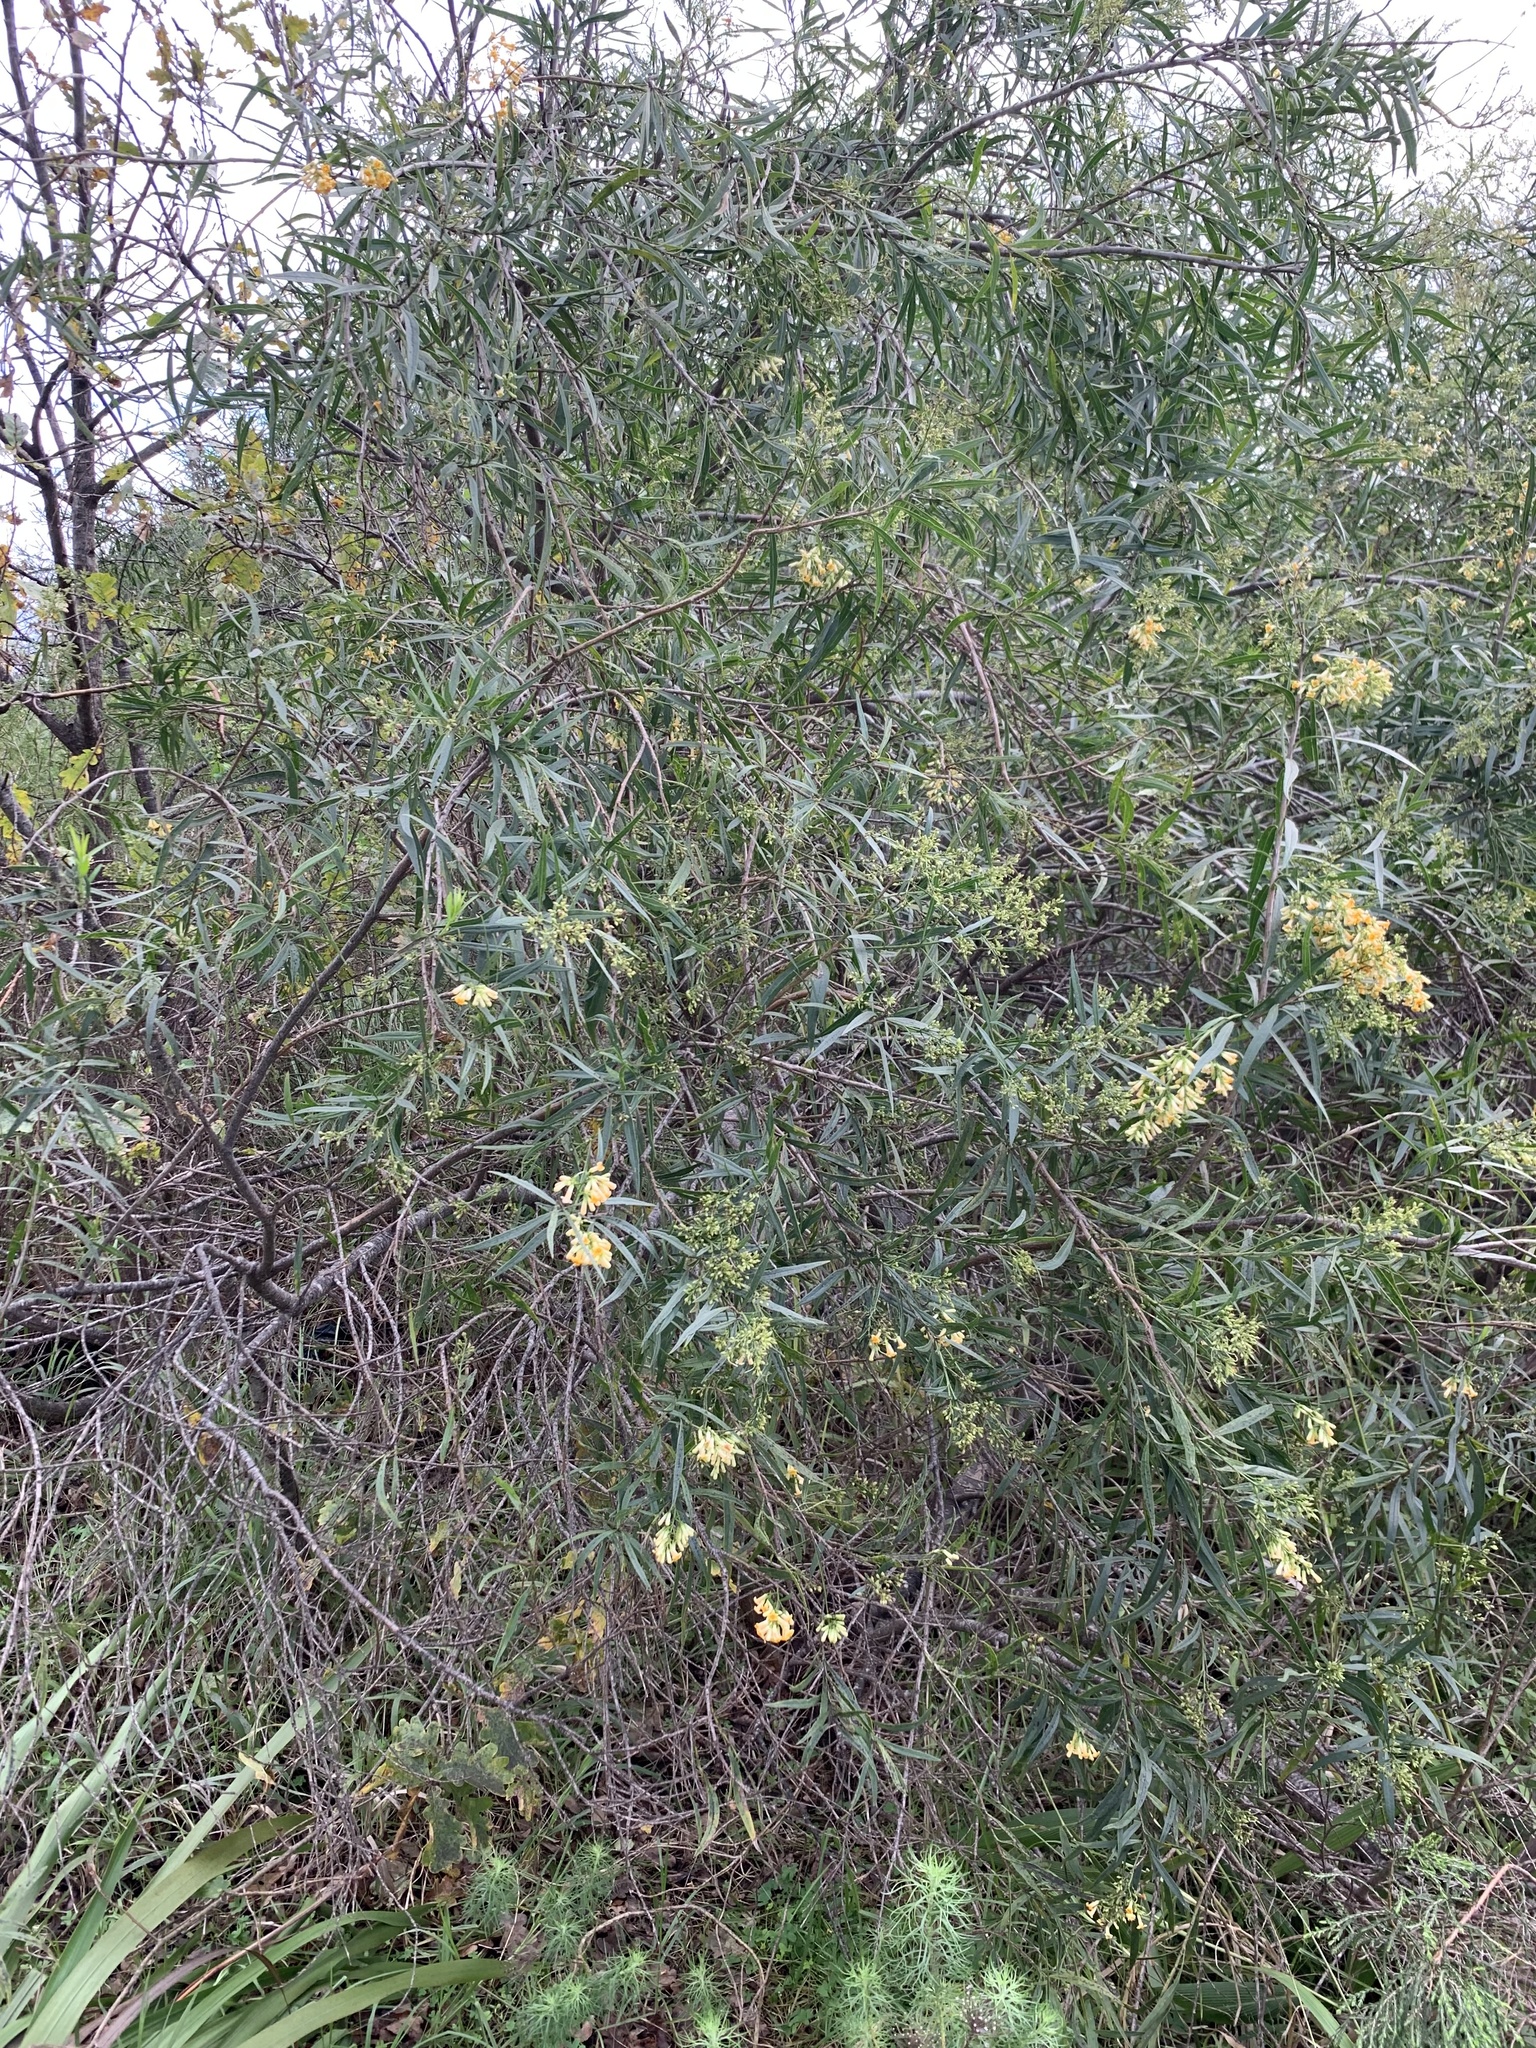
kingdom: Plantae
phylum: Tracheophyta
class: Magnoliopsida
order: Lamiales
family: Scrophulariaceae
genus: Freylinia
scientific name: Freylinia lanceolata
